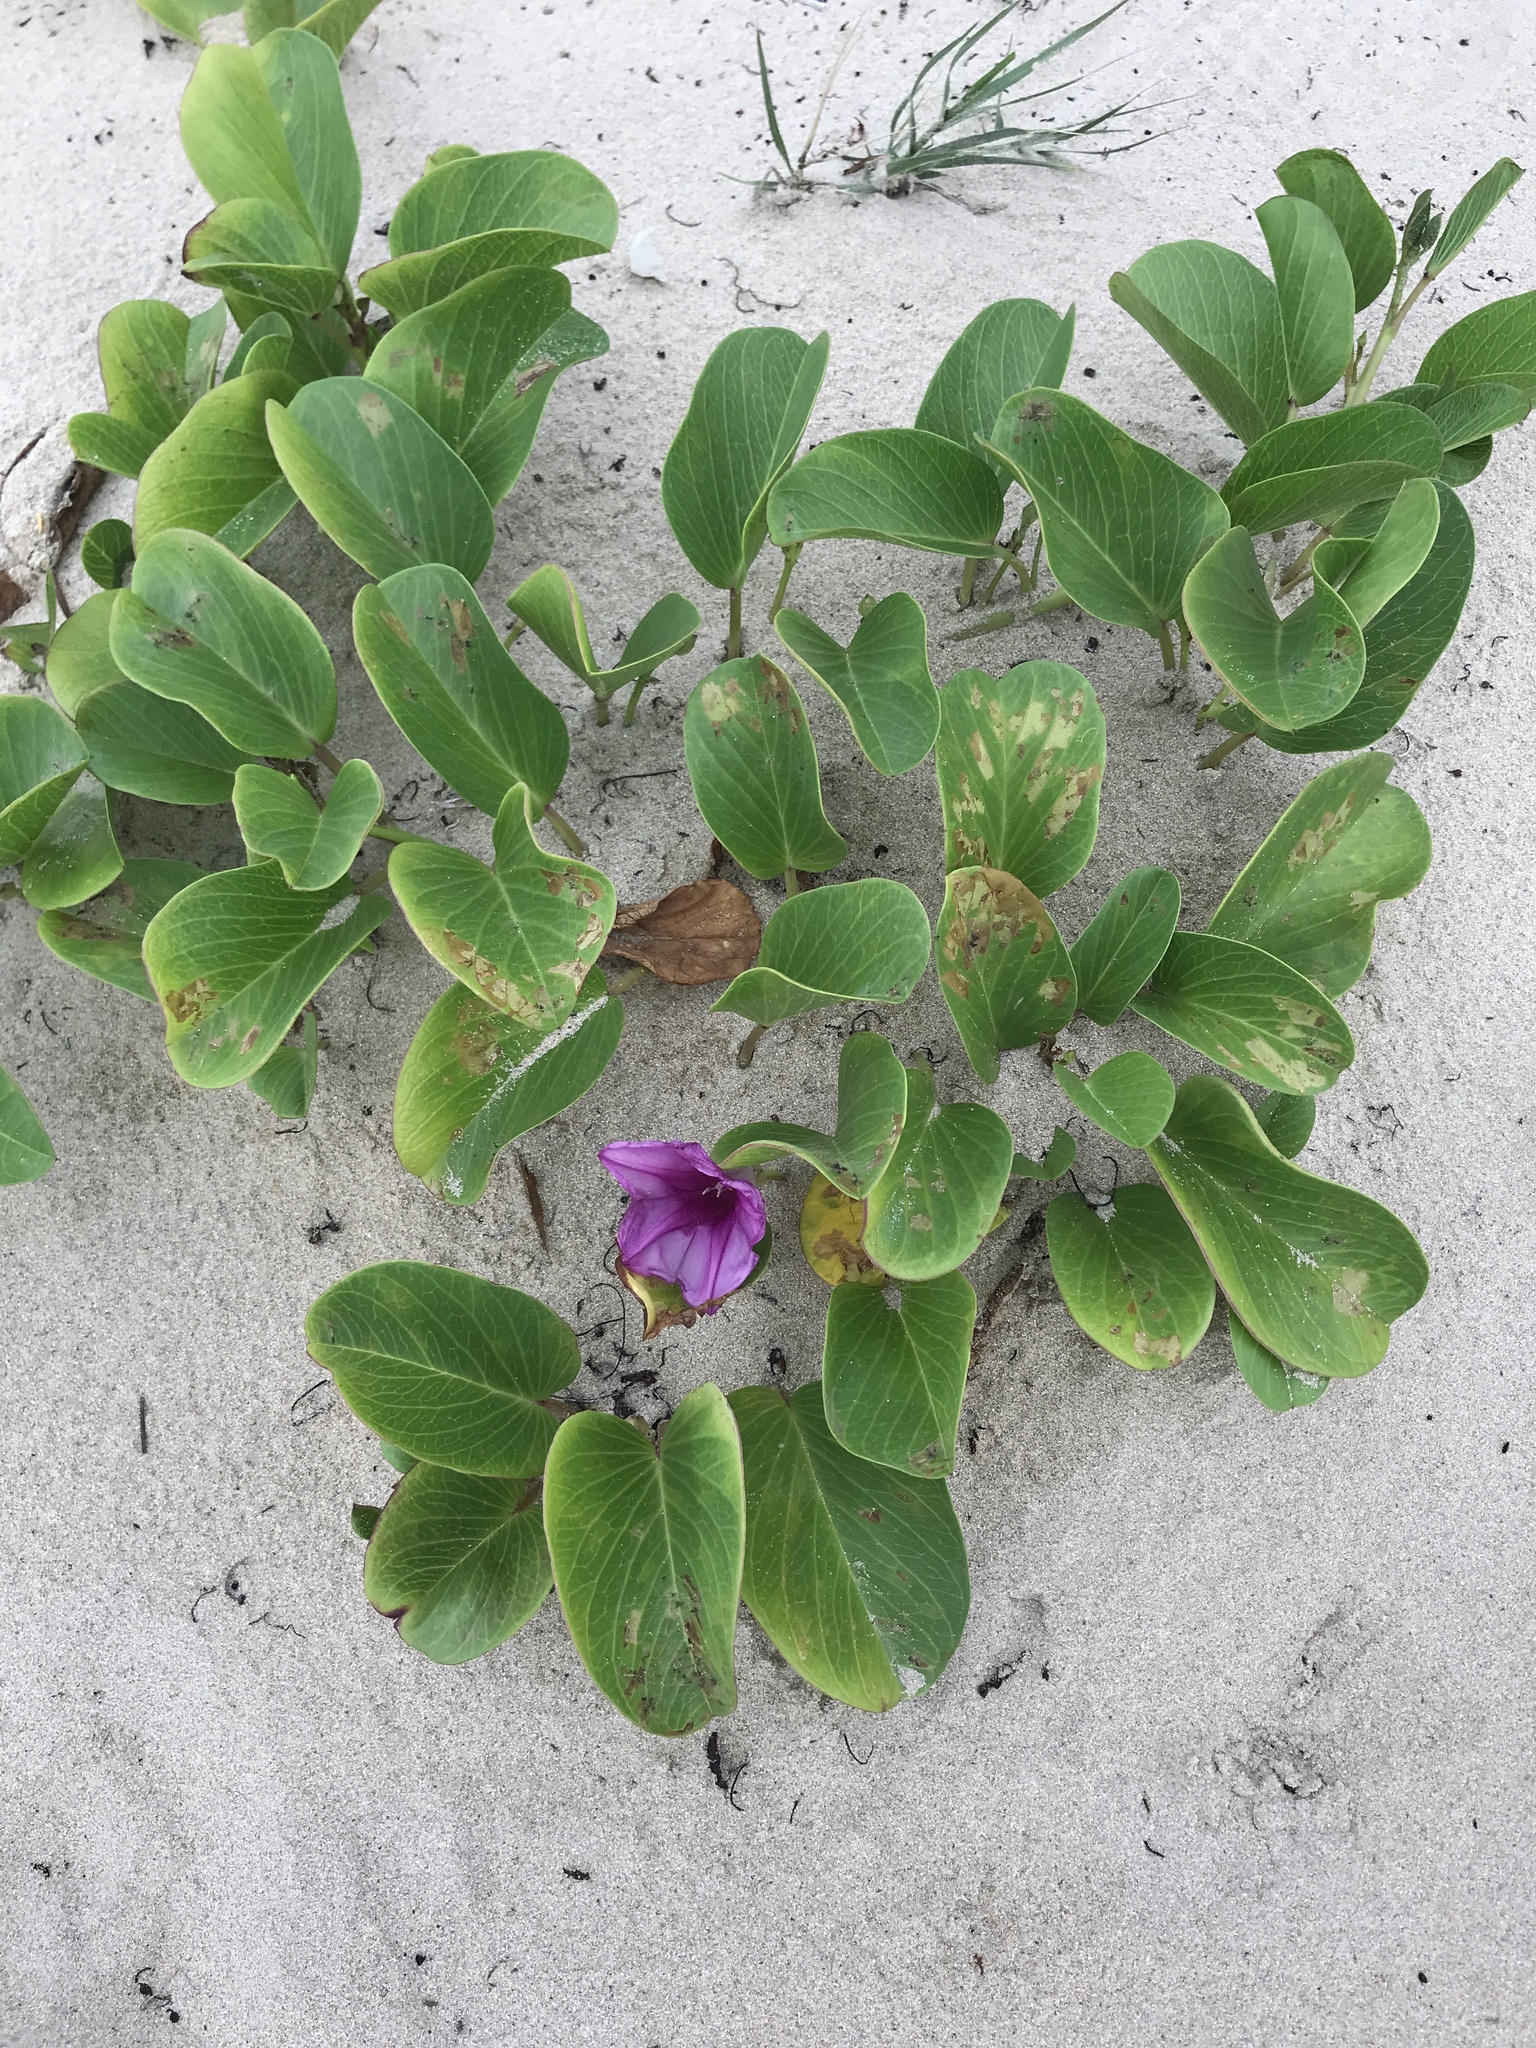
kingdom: Plantae
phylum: Tracheophyta
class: Magnoliopsida
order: Solanales
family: Convolvulaceae
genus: Ipomoea
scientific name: Ipomoea pes-caprae
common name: Beach morning glory
